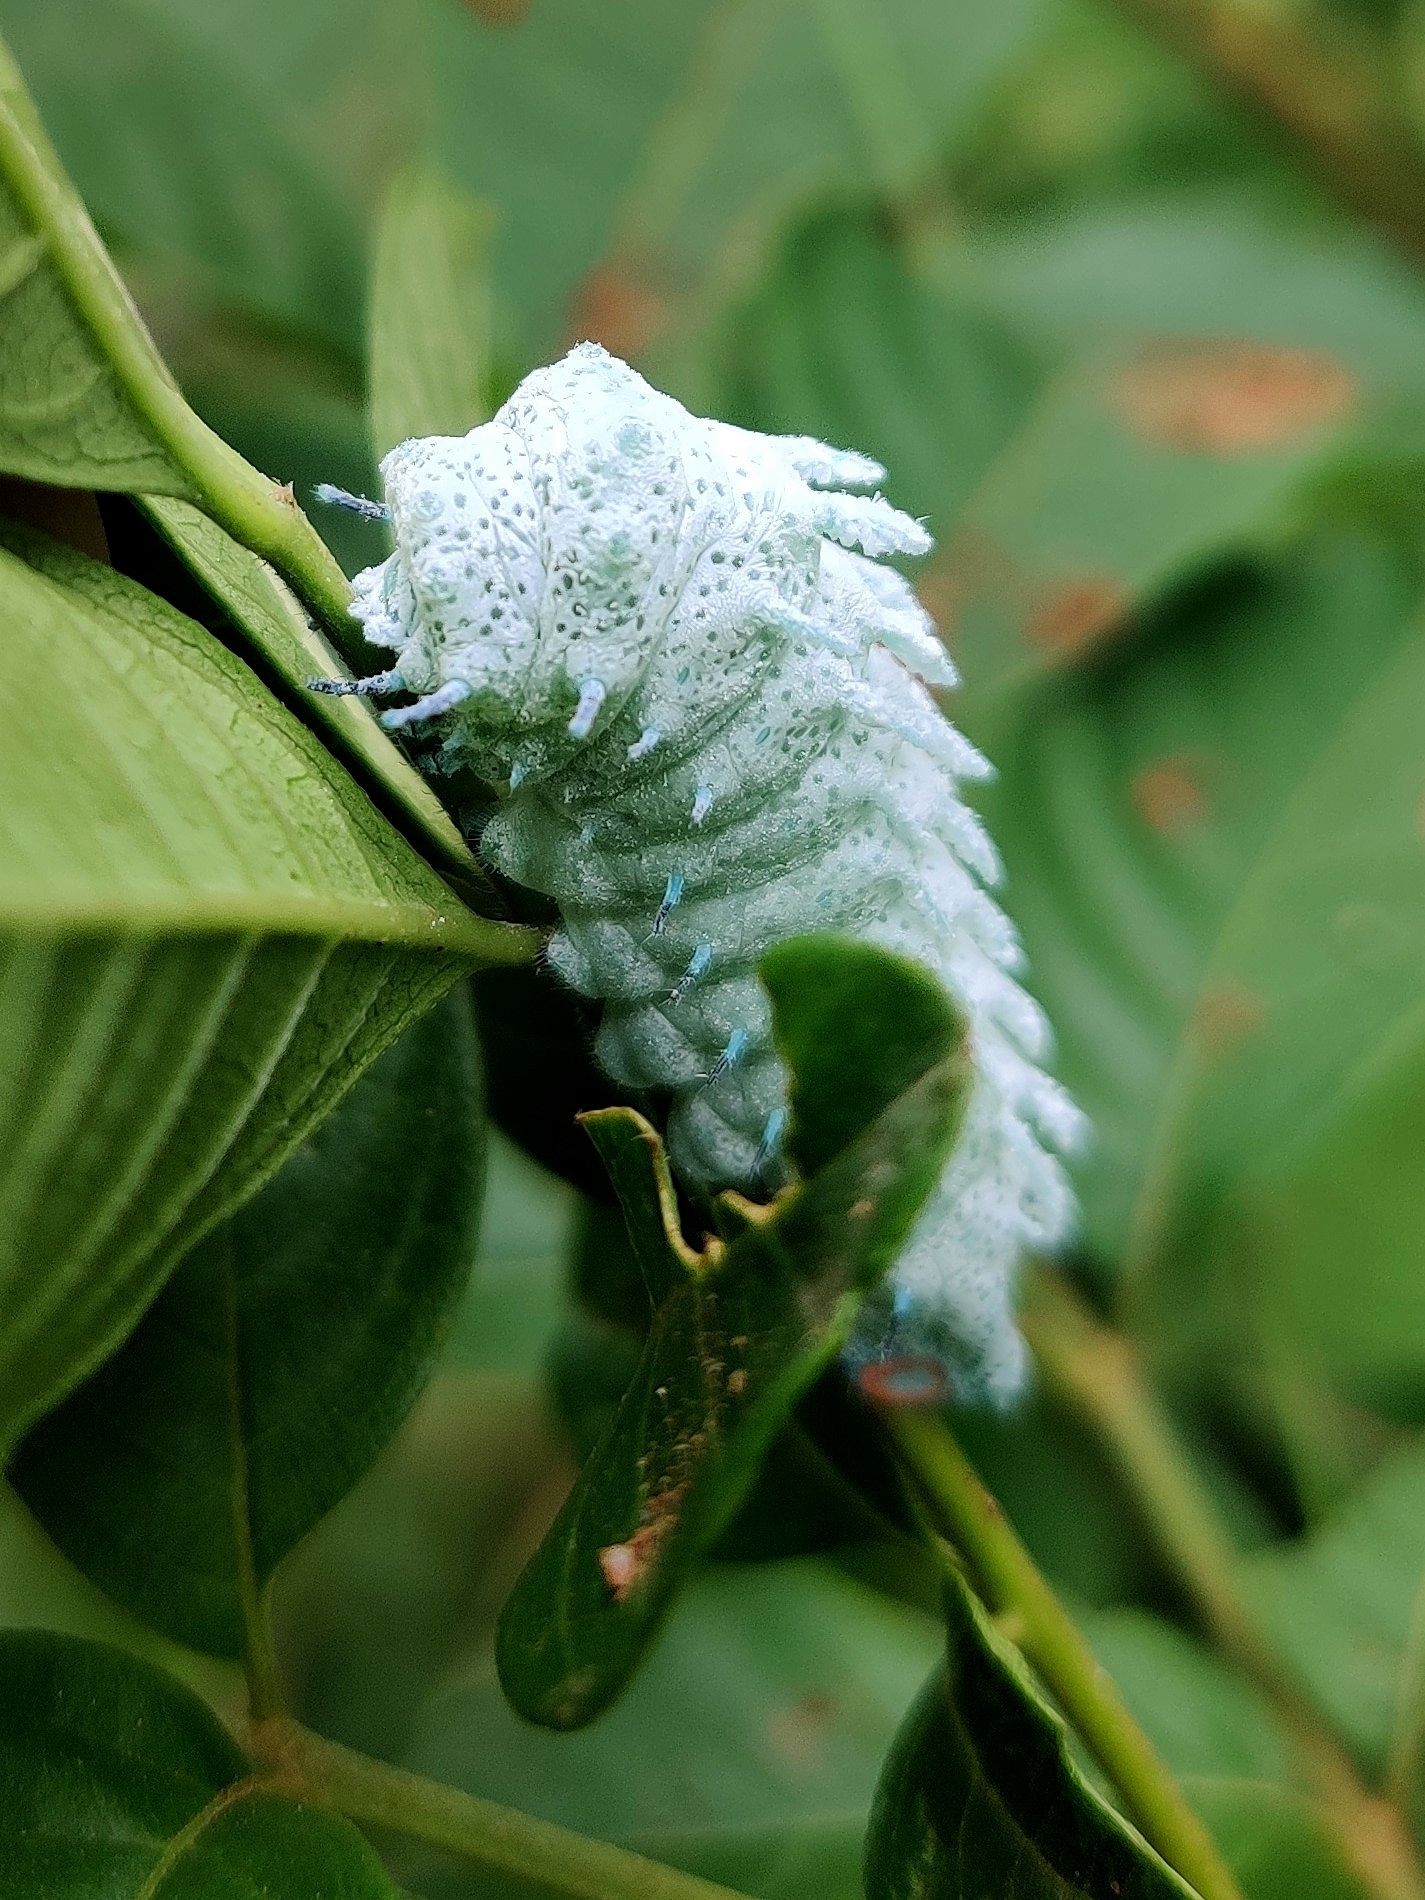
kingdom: Animalia
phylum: Arthropoda
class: Insecta
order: Lepidoptera
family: Saturniidae
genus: Attacus
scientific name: Attacus taprobanis
